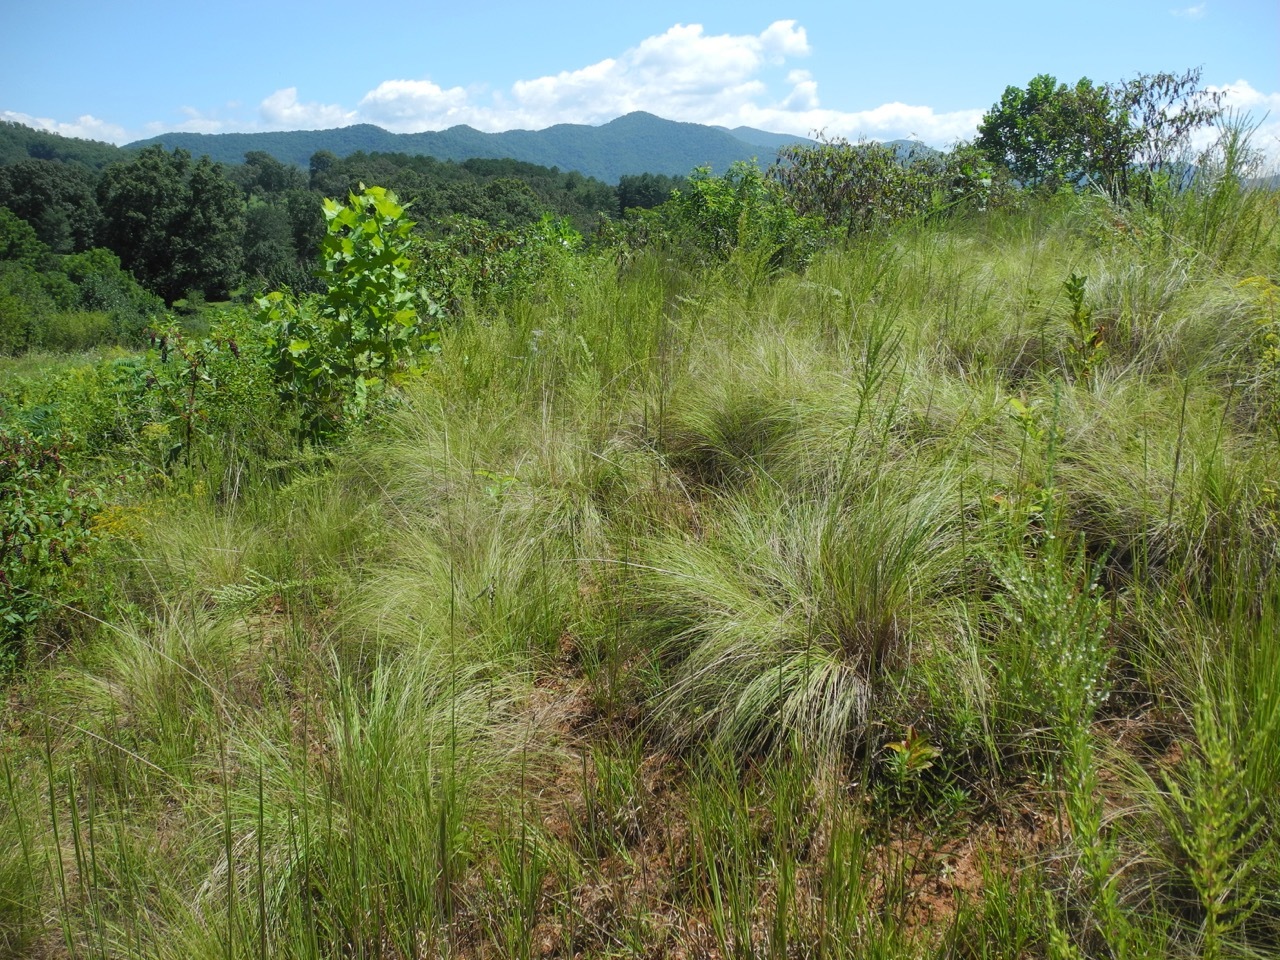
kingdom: Plantae
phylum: Tracheophyta
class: Liliopsida
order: Poales
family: Poaceae
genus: Eragrostis
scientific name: Eragrostis curvula
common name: African love-grass
